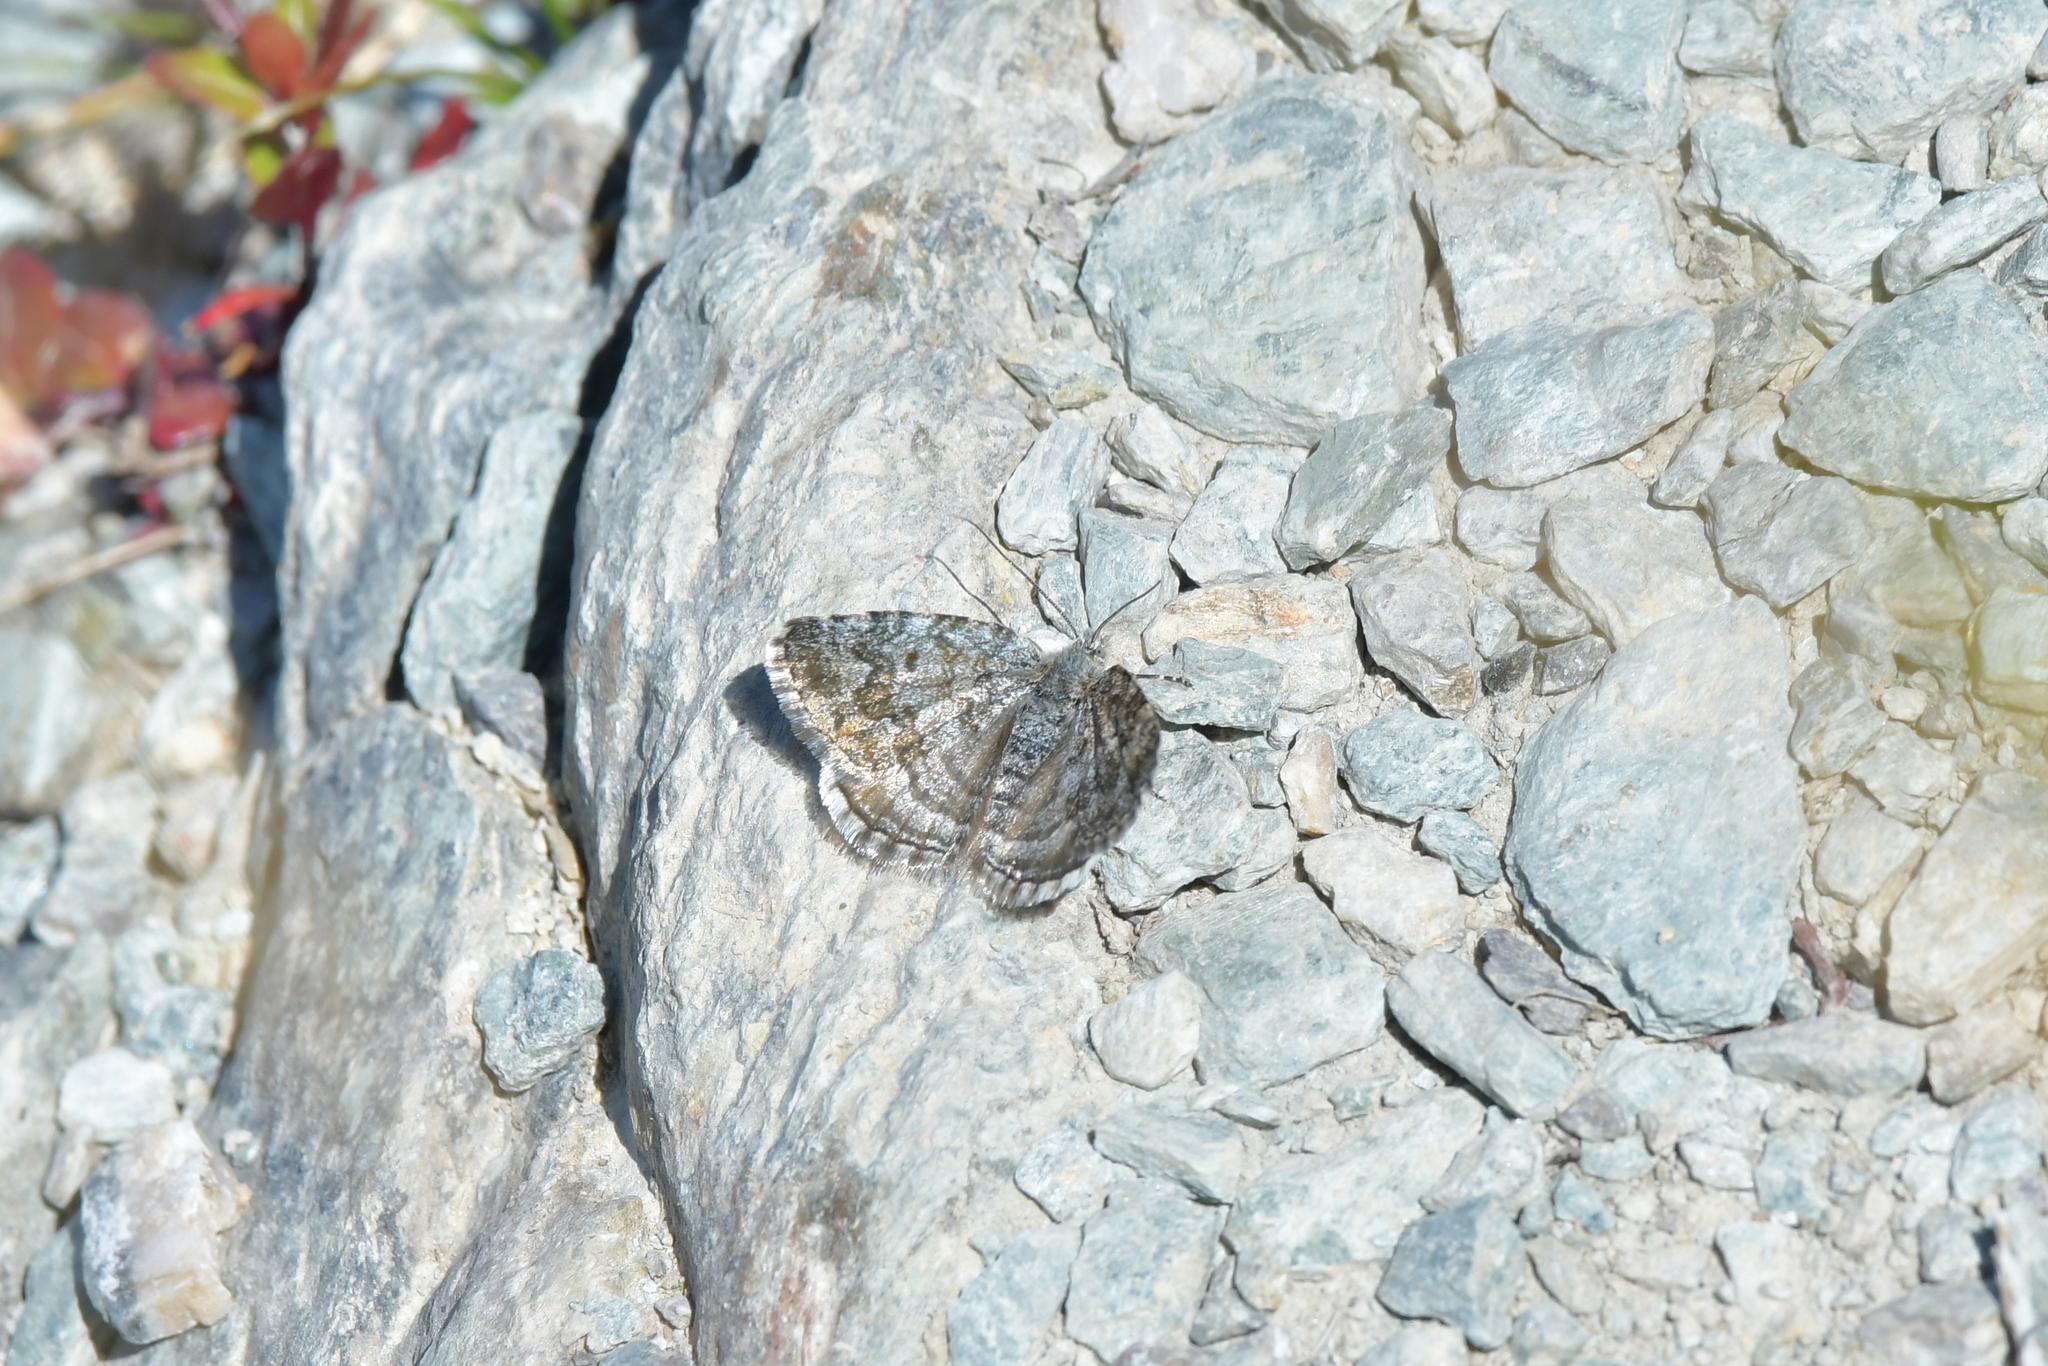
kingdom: Animalia
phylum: Arthropoda
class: Insecta
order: Lepidoptera
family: Geometridae
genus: Dasyuris
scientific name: Dasyuris austrina
